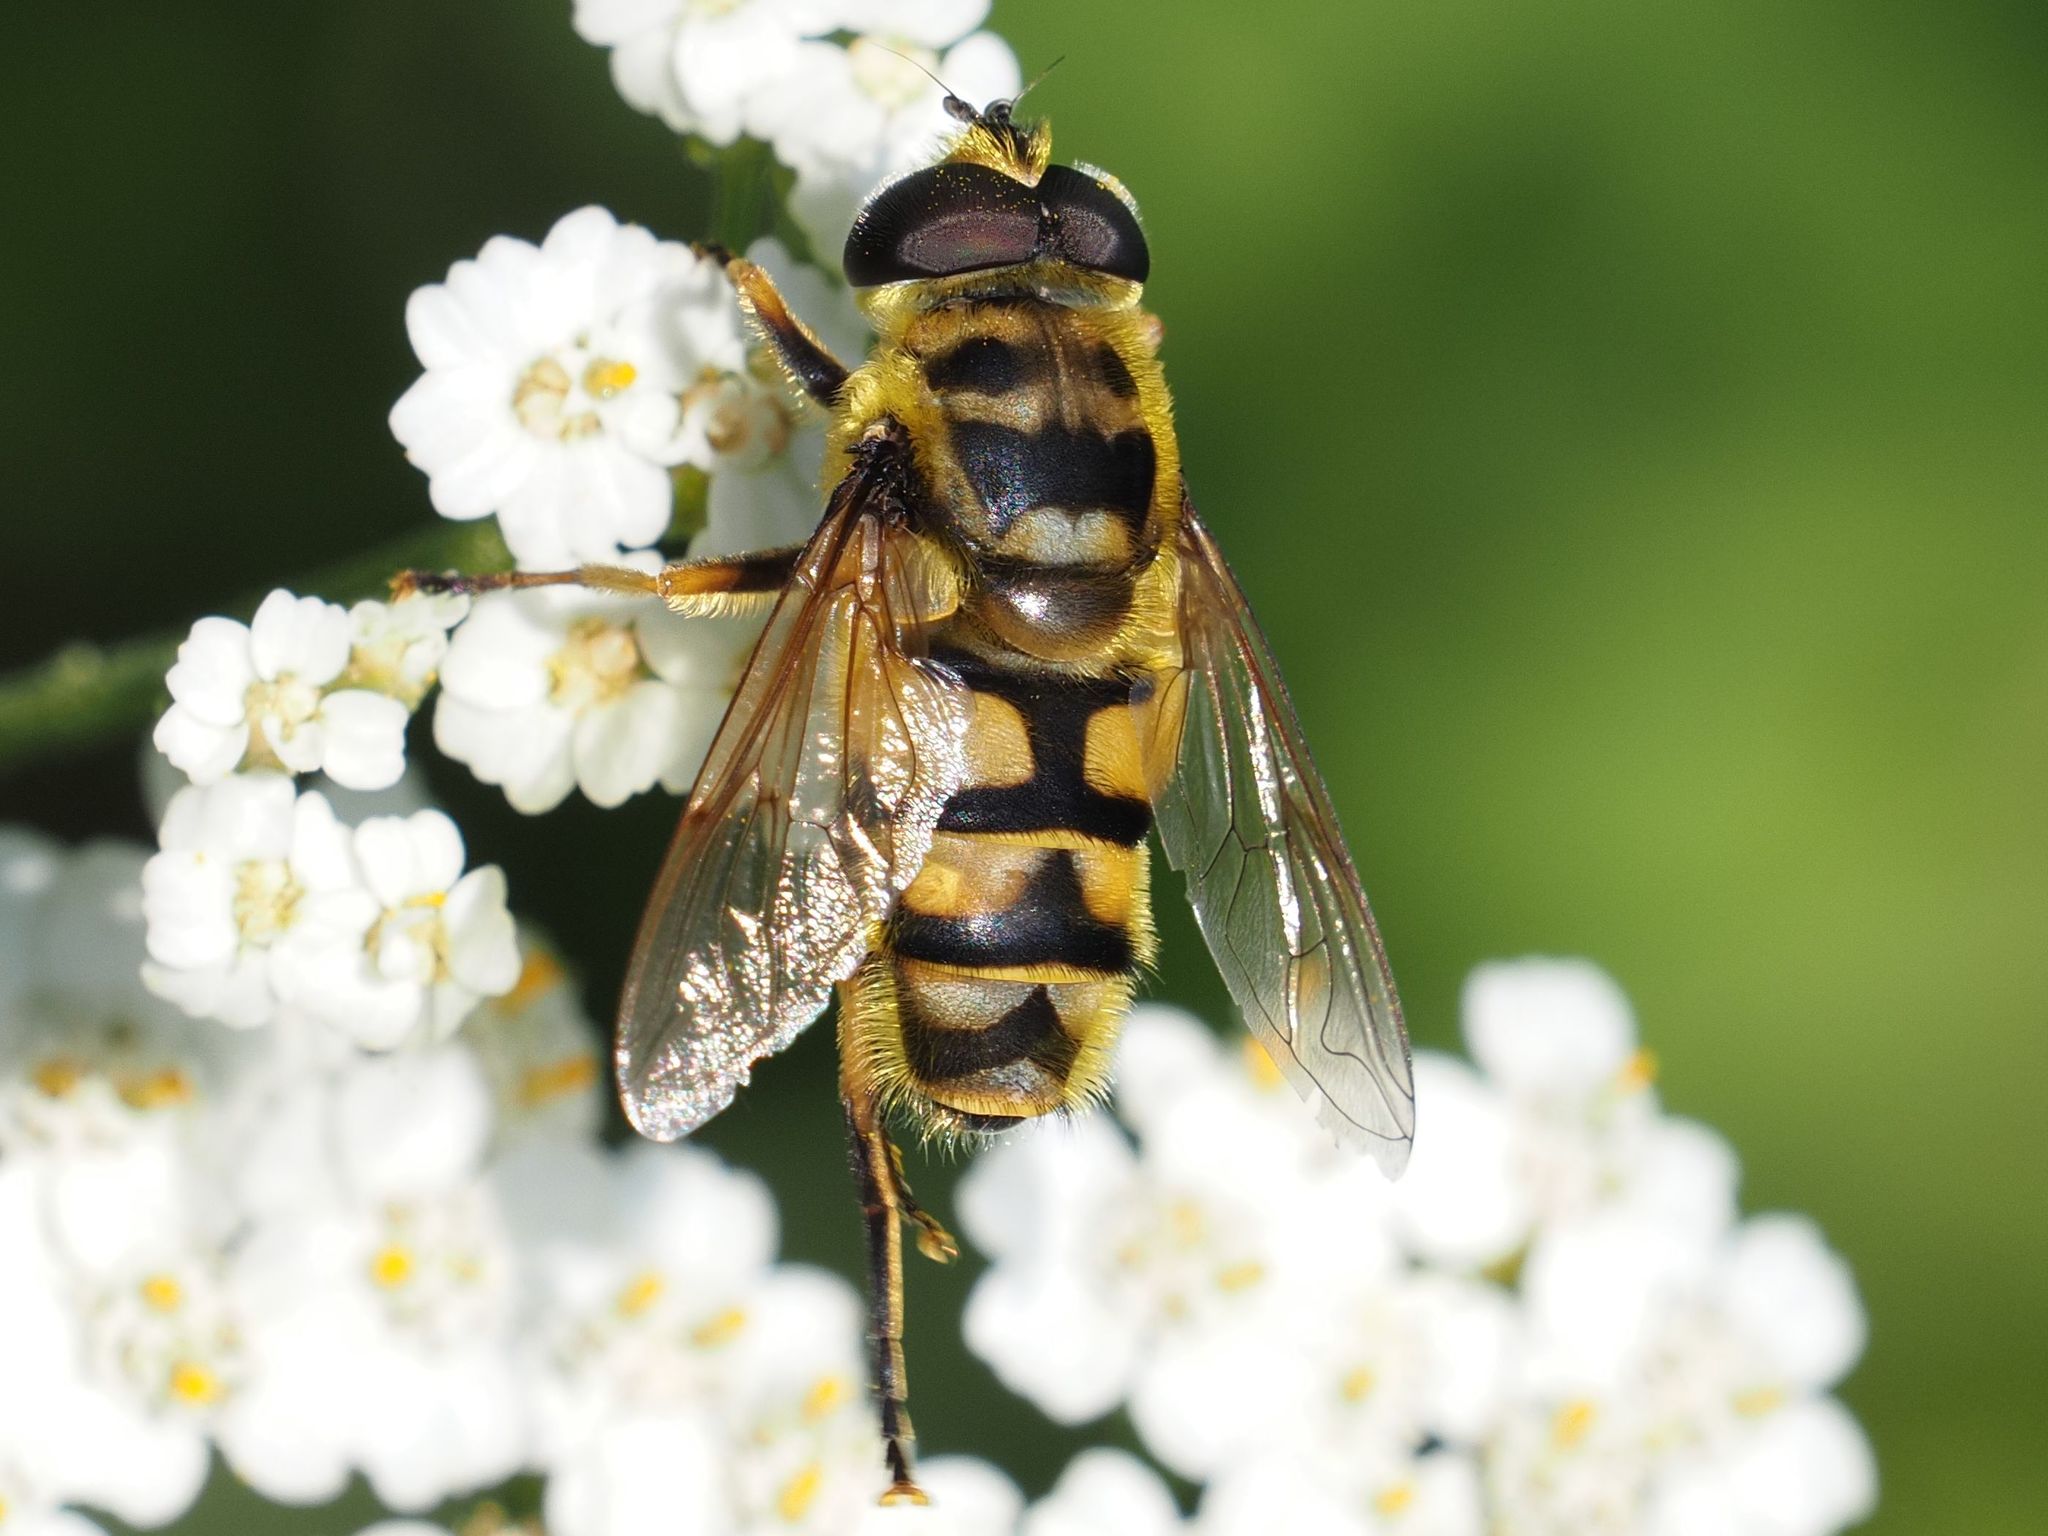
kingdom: Animalia
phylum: Arthropoda
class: Insecta
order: Diptera
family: Syrphidae
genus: Myathropa
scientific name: Myathropa florea
